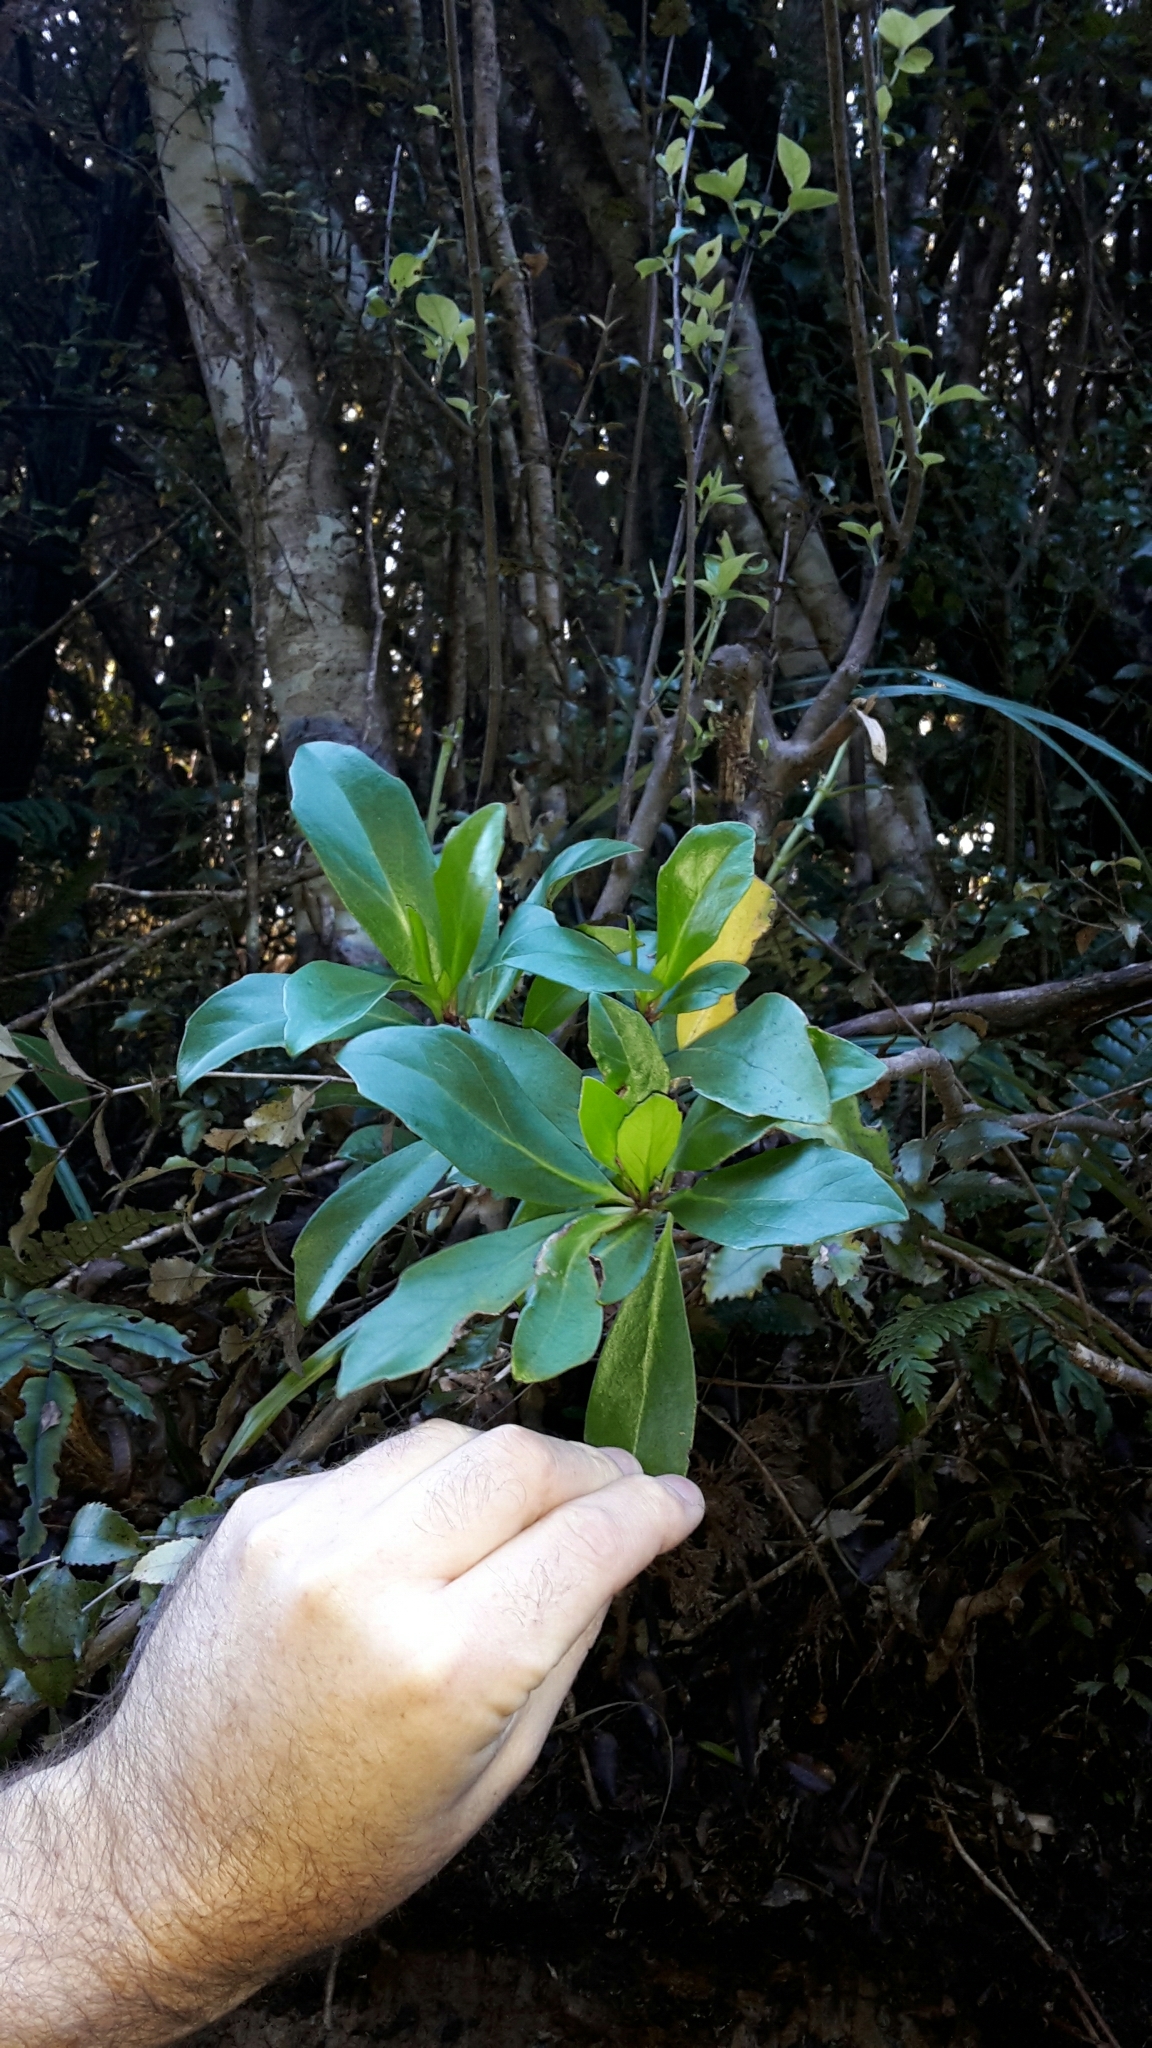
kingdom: Plantae
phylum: Tracheophyta
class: Magnoliopsida
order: Asterales
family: Asteraceae
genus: Brachyglottis
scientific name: Brachyglottis kirkii
